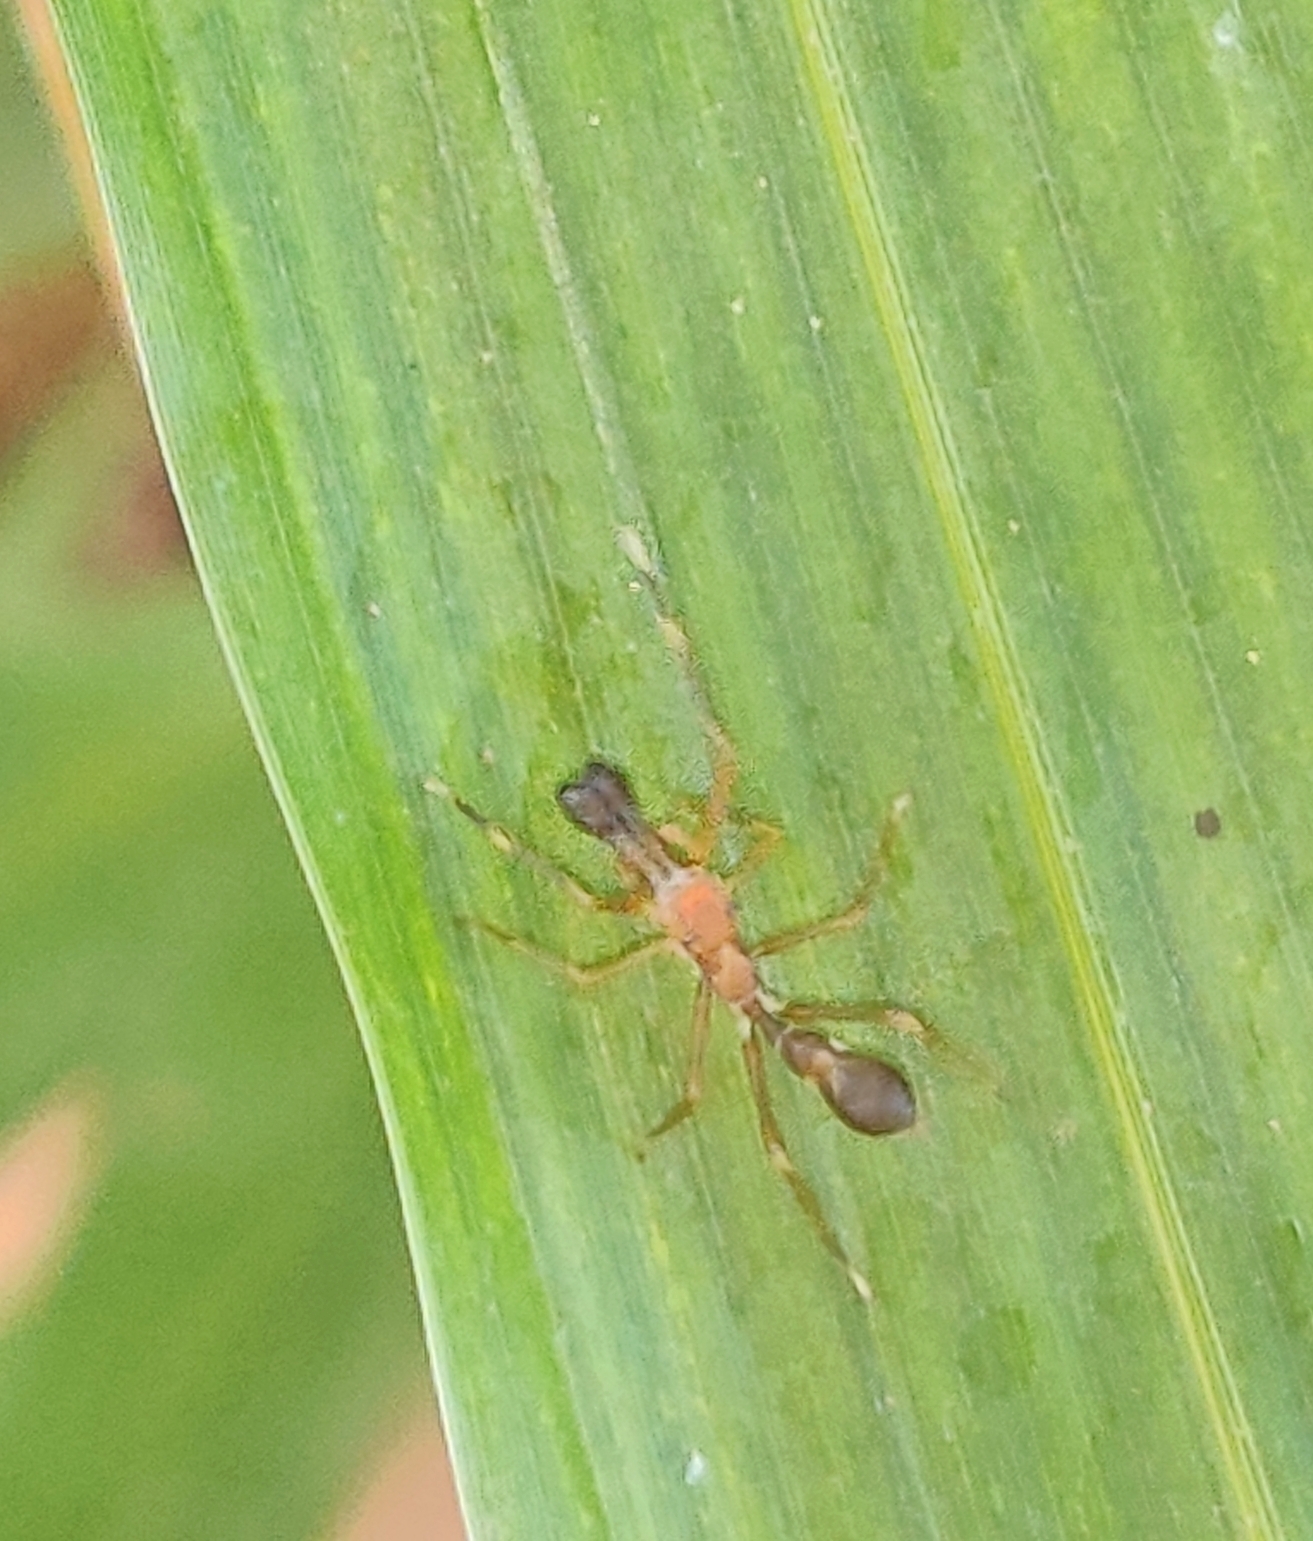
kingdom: Animalia
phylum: Arthropoda
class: Arachnida
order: Araneae
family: Salticidae
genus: Myrmaplata
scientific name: Myrmaplata plataleoides
